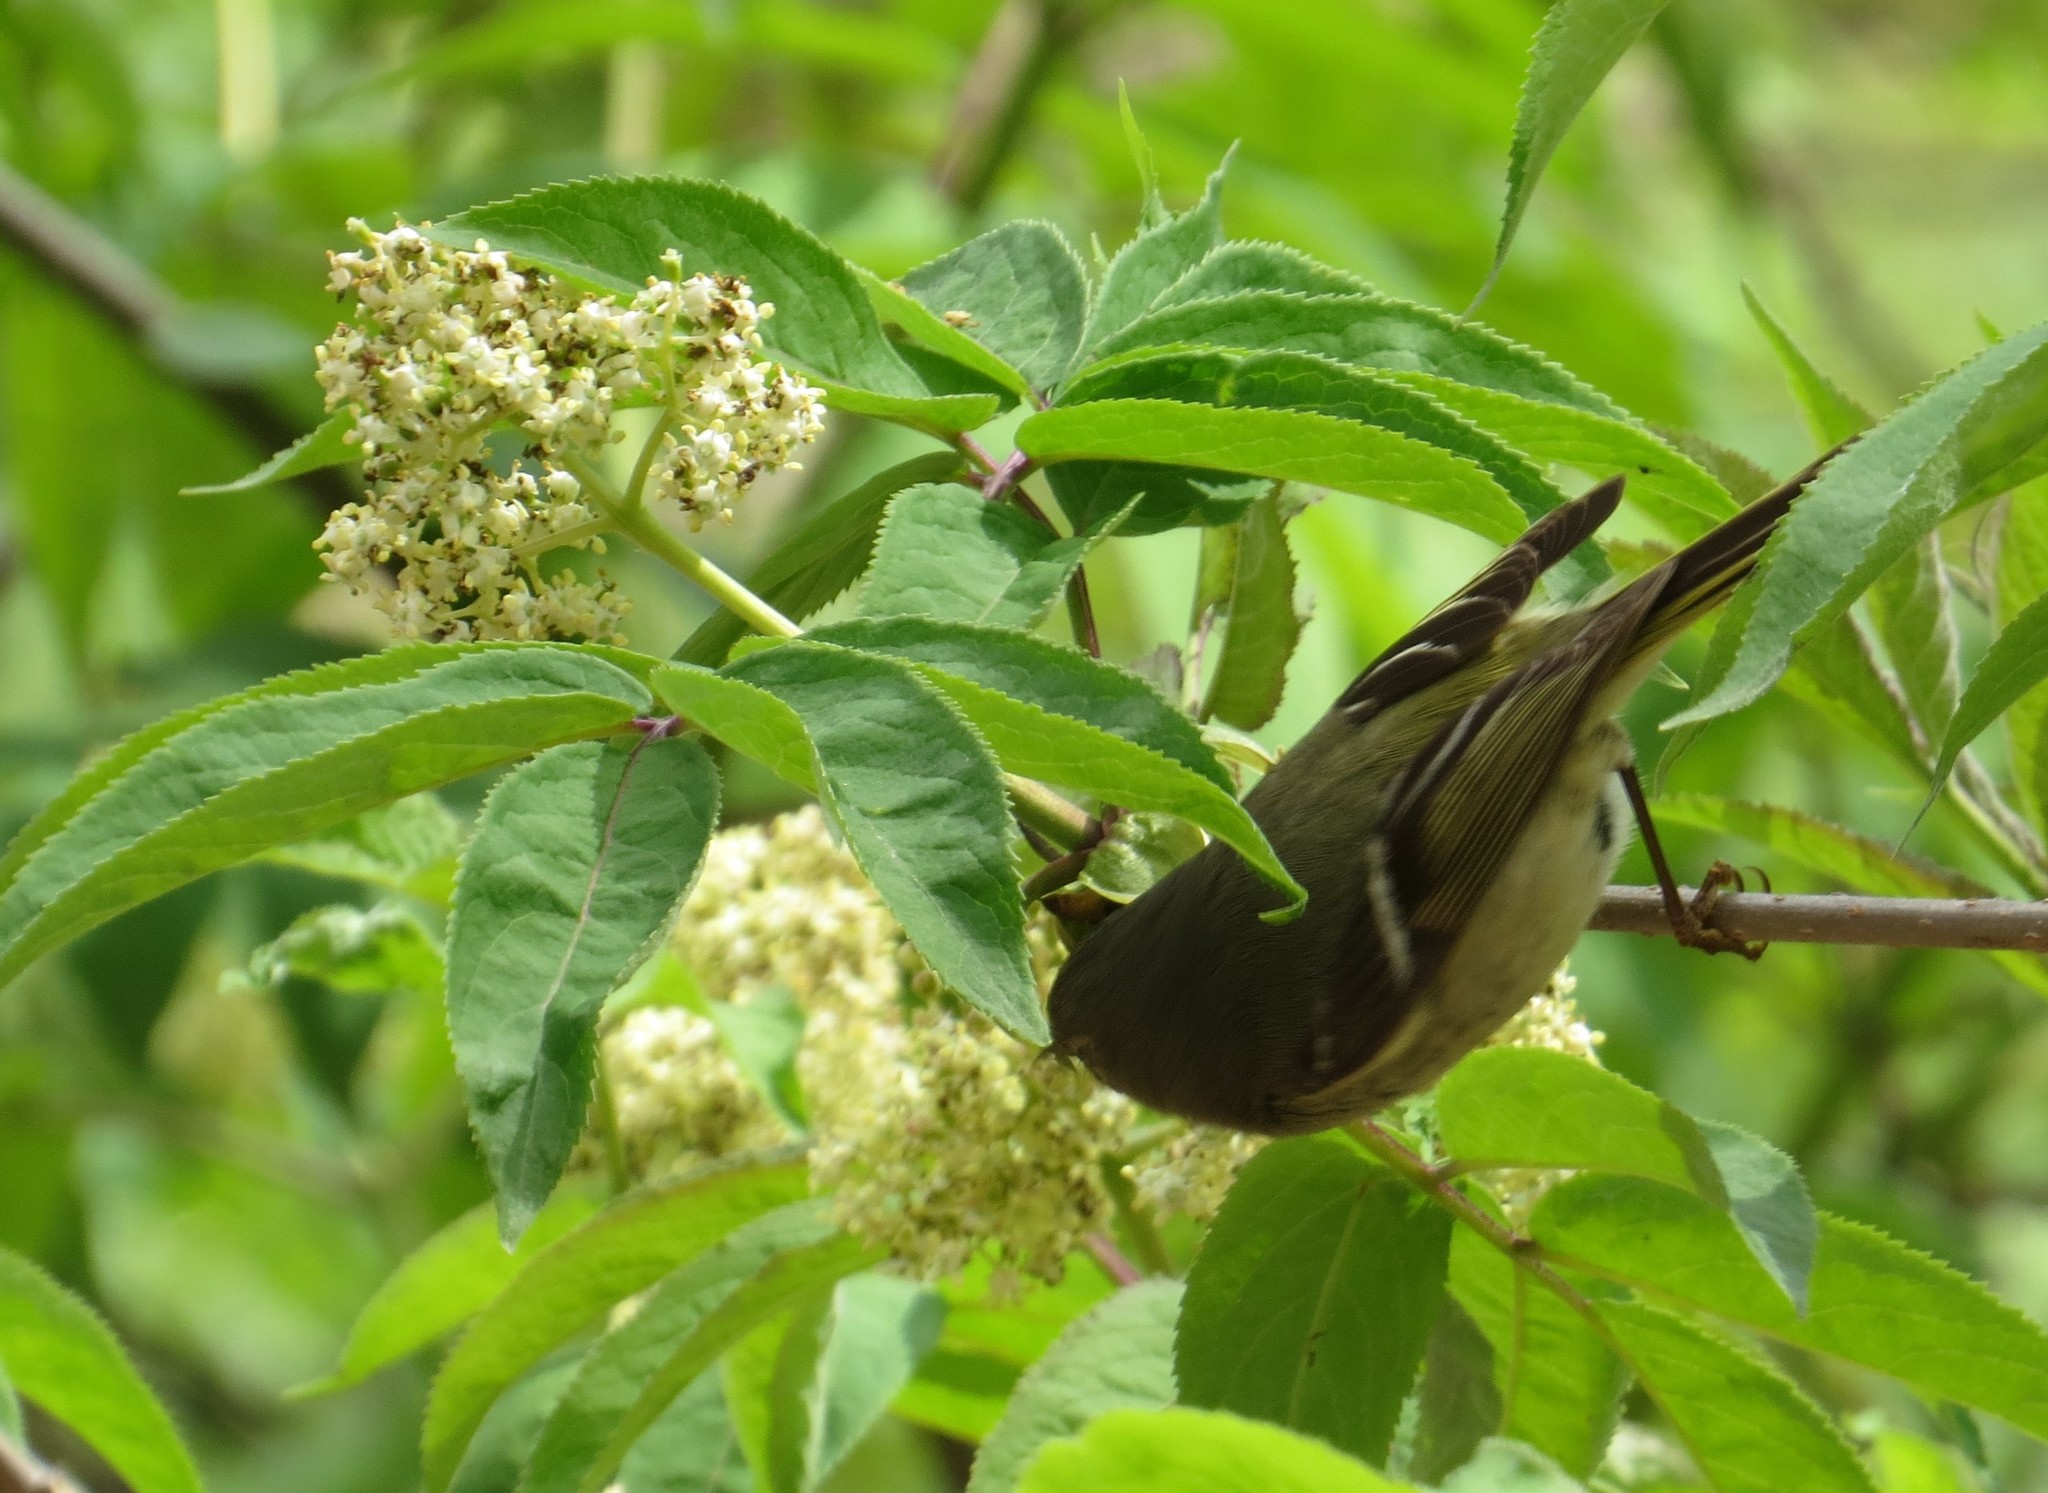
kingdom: Animalia
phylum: Chordata
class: Aves
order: Passeriformes
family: Regulidae
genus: Regulus
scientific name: Regulus calendula
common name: Ruby-crowned kinglet
